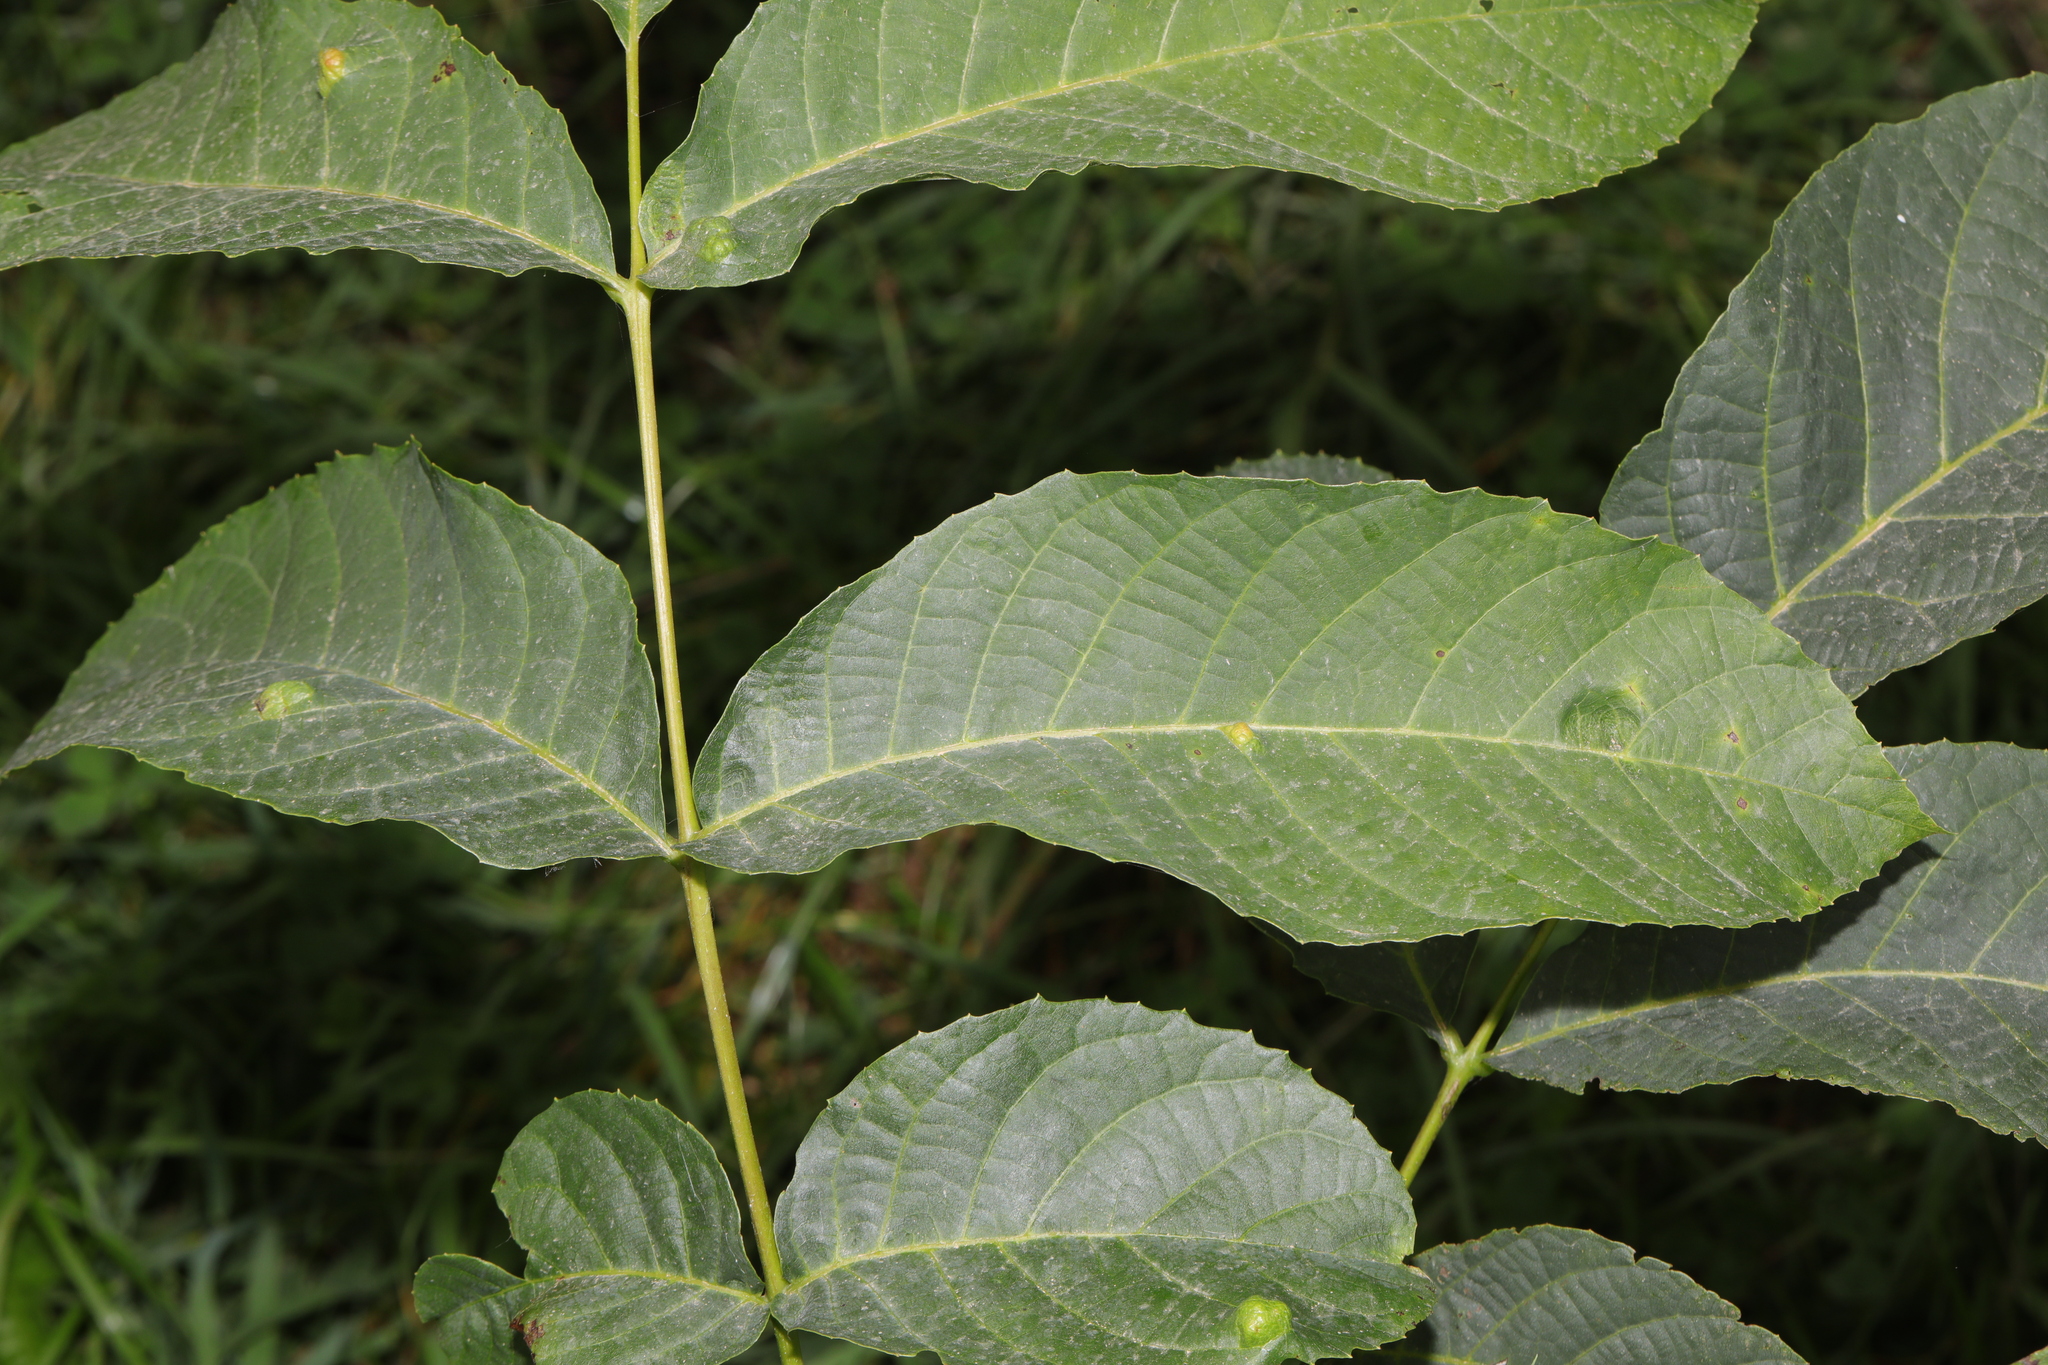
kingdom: Plantae
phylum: Tracheophyta
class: Magnoliopsida
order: Fagales
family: Juglandaceae
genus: Juglans
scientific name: Juglans regia
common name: Walnut
